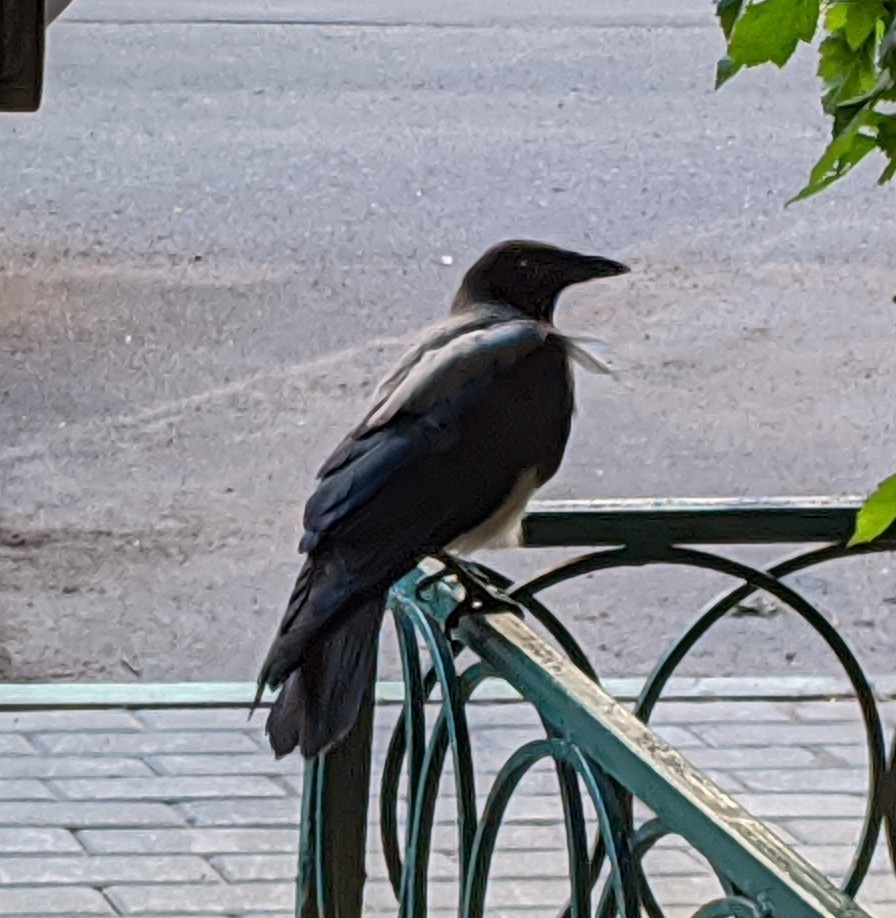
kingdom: Animalia
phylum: Chordata
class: Aves
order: Passeriformes
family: Corvidae
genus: Corvus
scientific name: Corvus cornix
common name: Hooded crow
